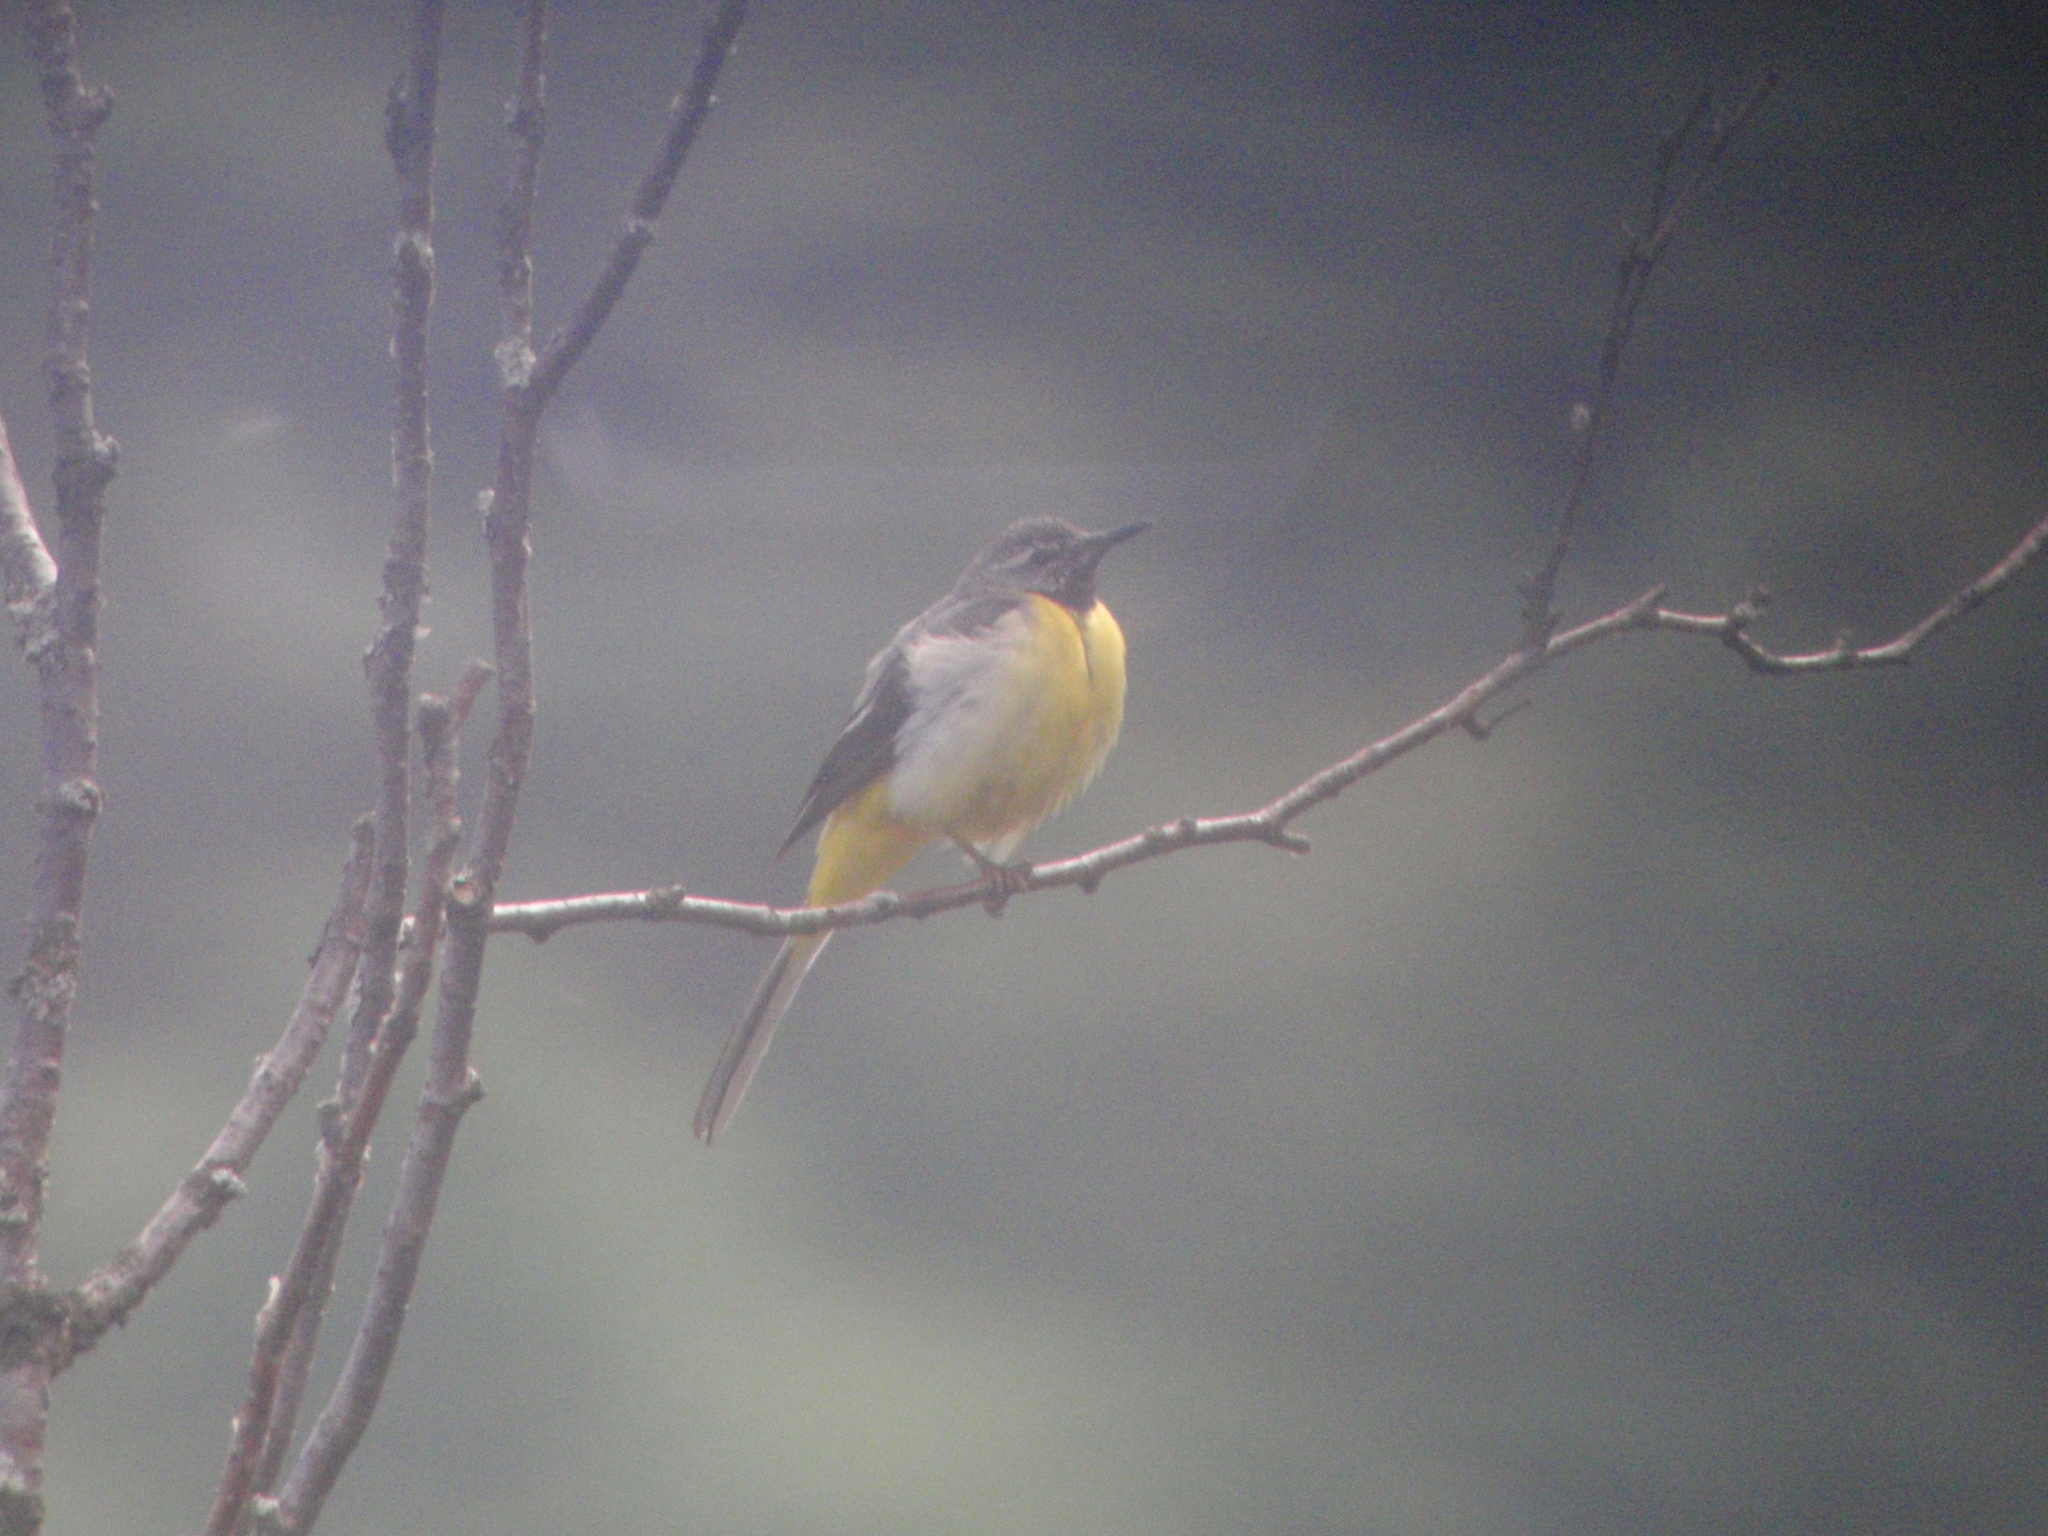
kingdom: Animalia
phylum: Chordata
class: Aves
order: Passeriformes
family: Motacillidae
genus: Motacilla
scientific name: Motacilla cinerea
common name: Grey wagtail
